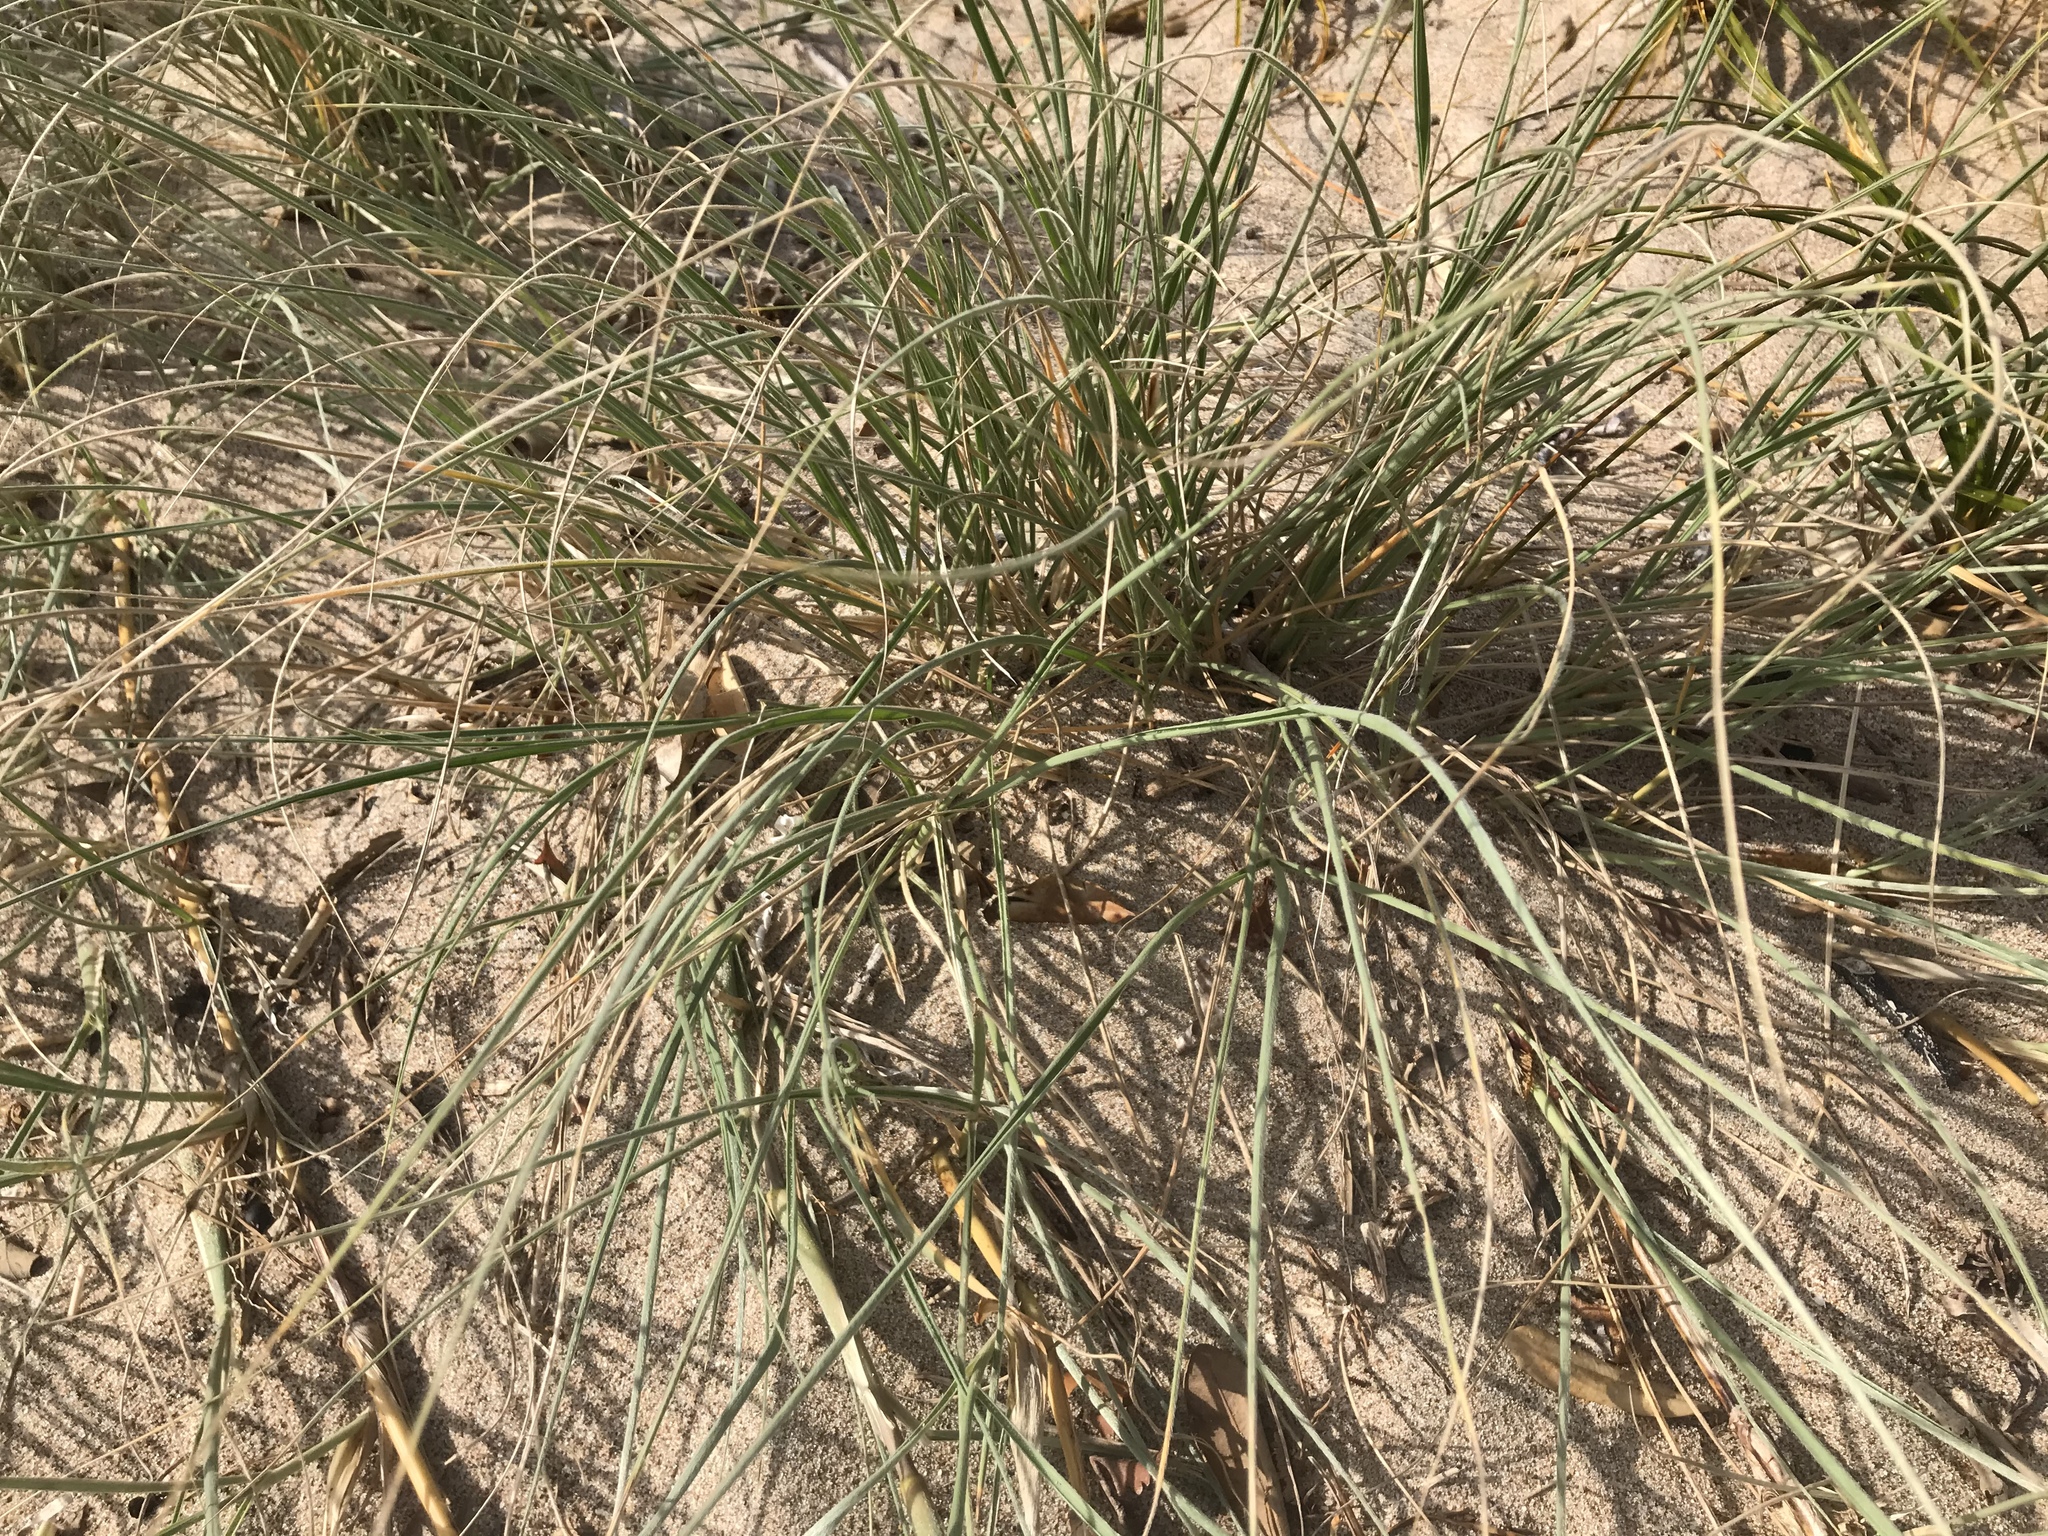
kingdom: Plantae
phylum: Tracheophyta
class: Liliopsida
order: Poales
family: Poaceae
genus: Spinifex
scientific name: Spinifex sericeus
